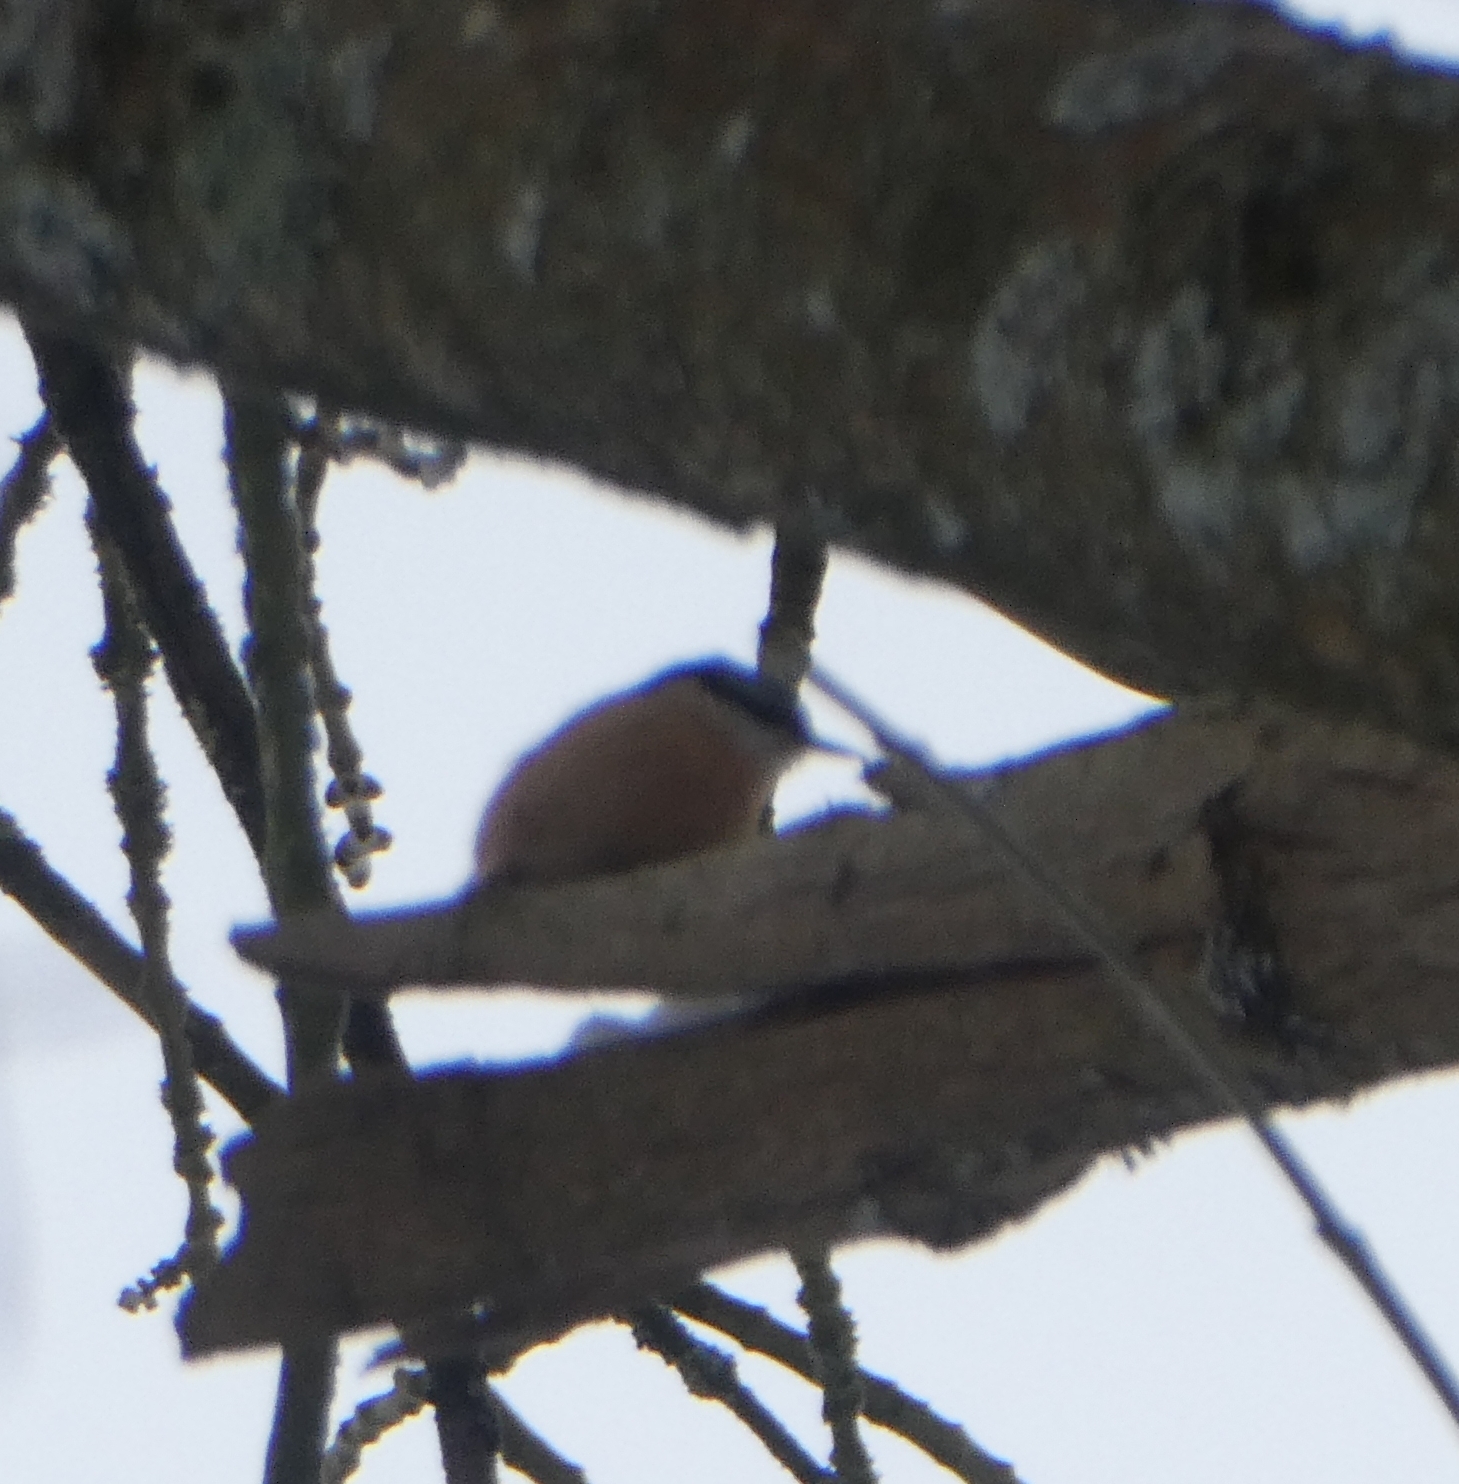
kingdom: Animalia
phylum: Chordata
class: Aves
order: Passeriformes
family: Sittidae
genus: Sitta
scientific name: Sitta europaea
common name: Eurasian nuthatch
